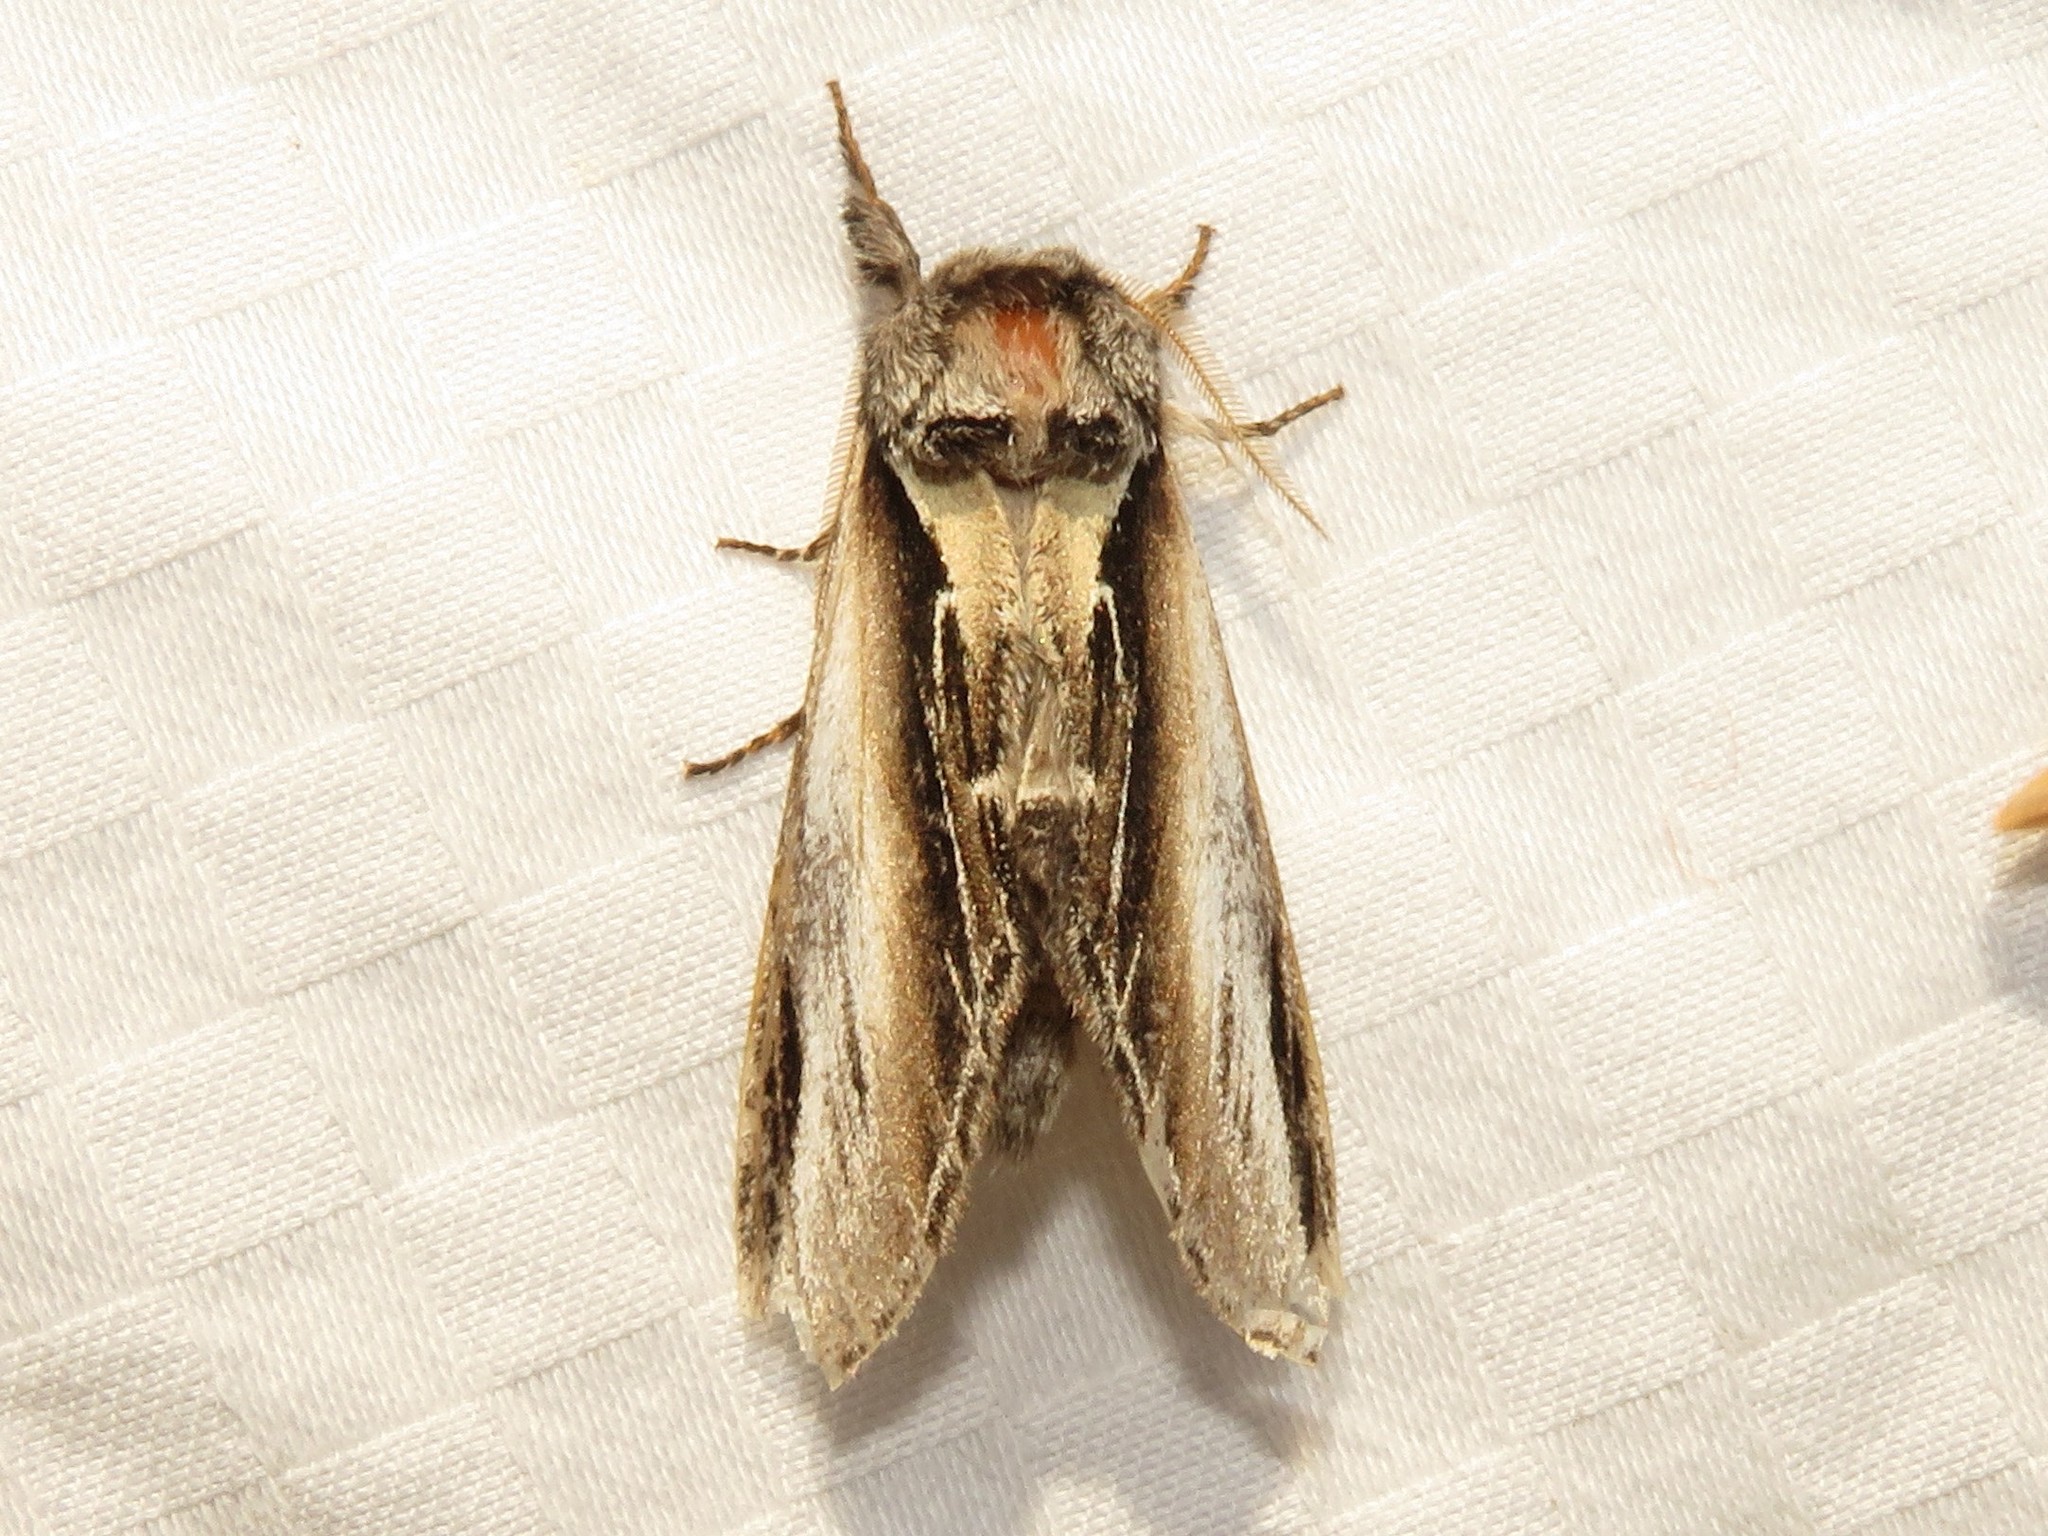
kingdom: Animalia
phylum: Arthropoda
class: Insecta
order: Lepidoptera
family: Notodontidae
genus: Pheosia
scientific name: Pheosia rimosa
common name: Black-rimmed prominent
